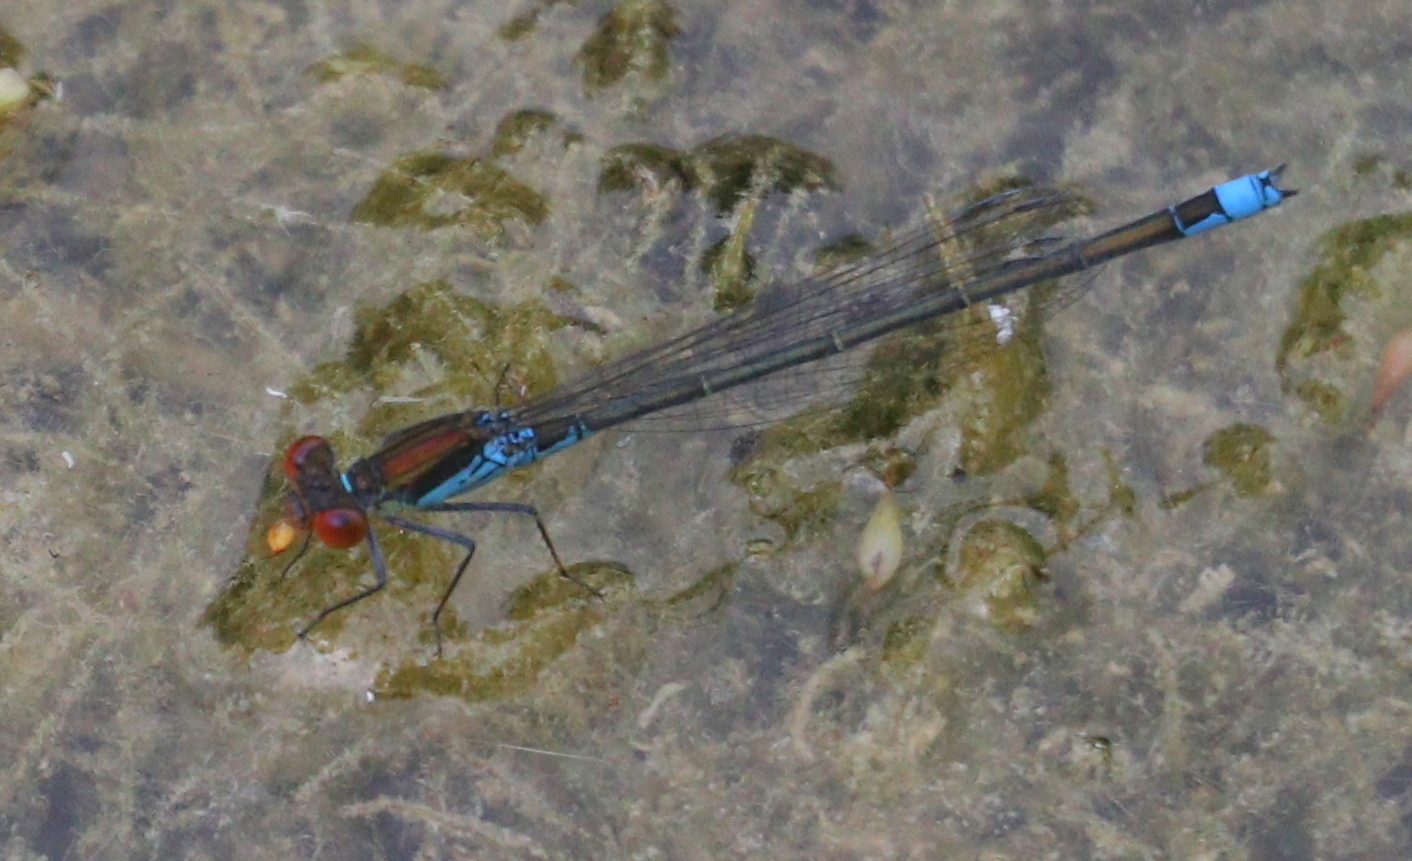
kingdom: Animalia
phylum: Arthropoda
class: Insecta
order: Odonata
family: Coenagrionidae
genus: Erythromma
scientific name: Erythromma viridulum
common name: Small red-eyed damselfly
